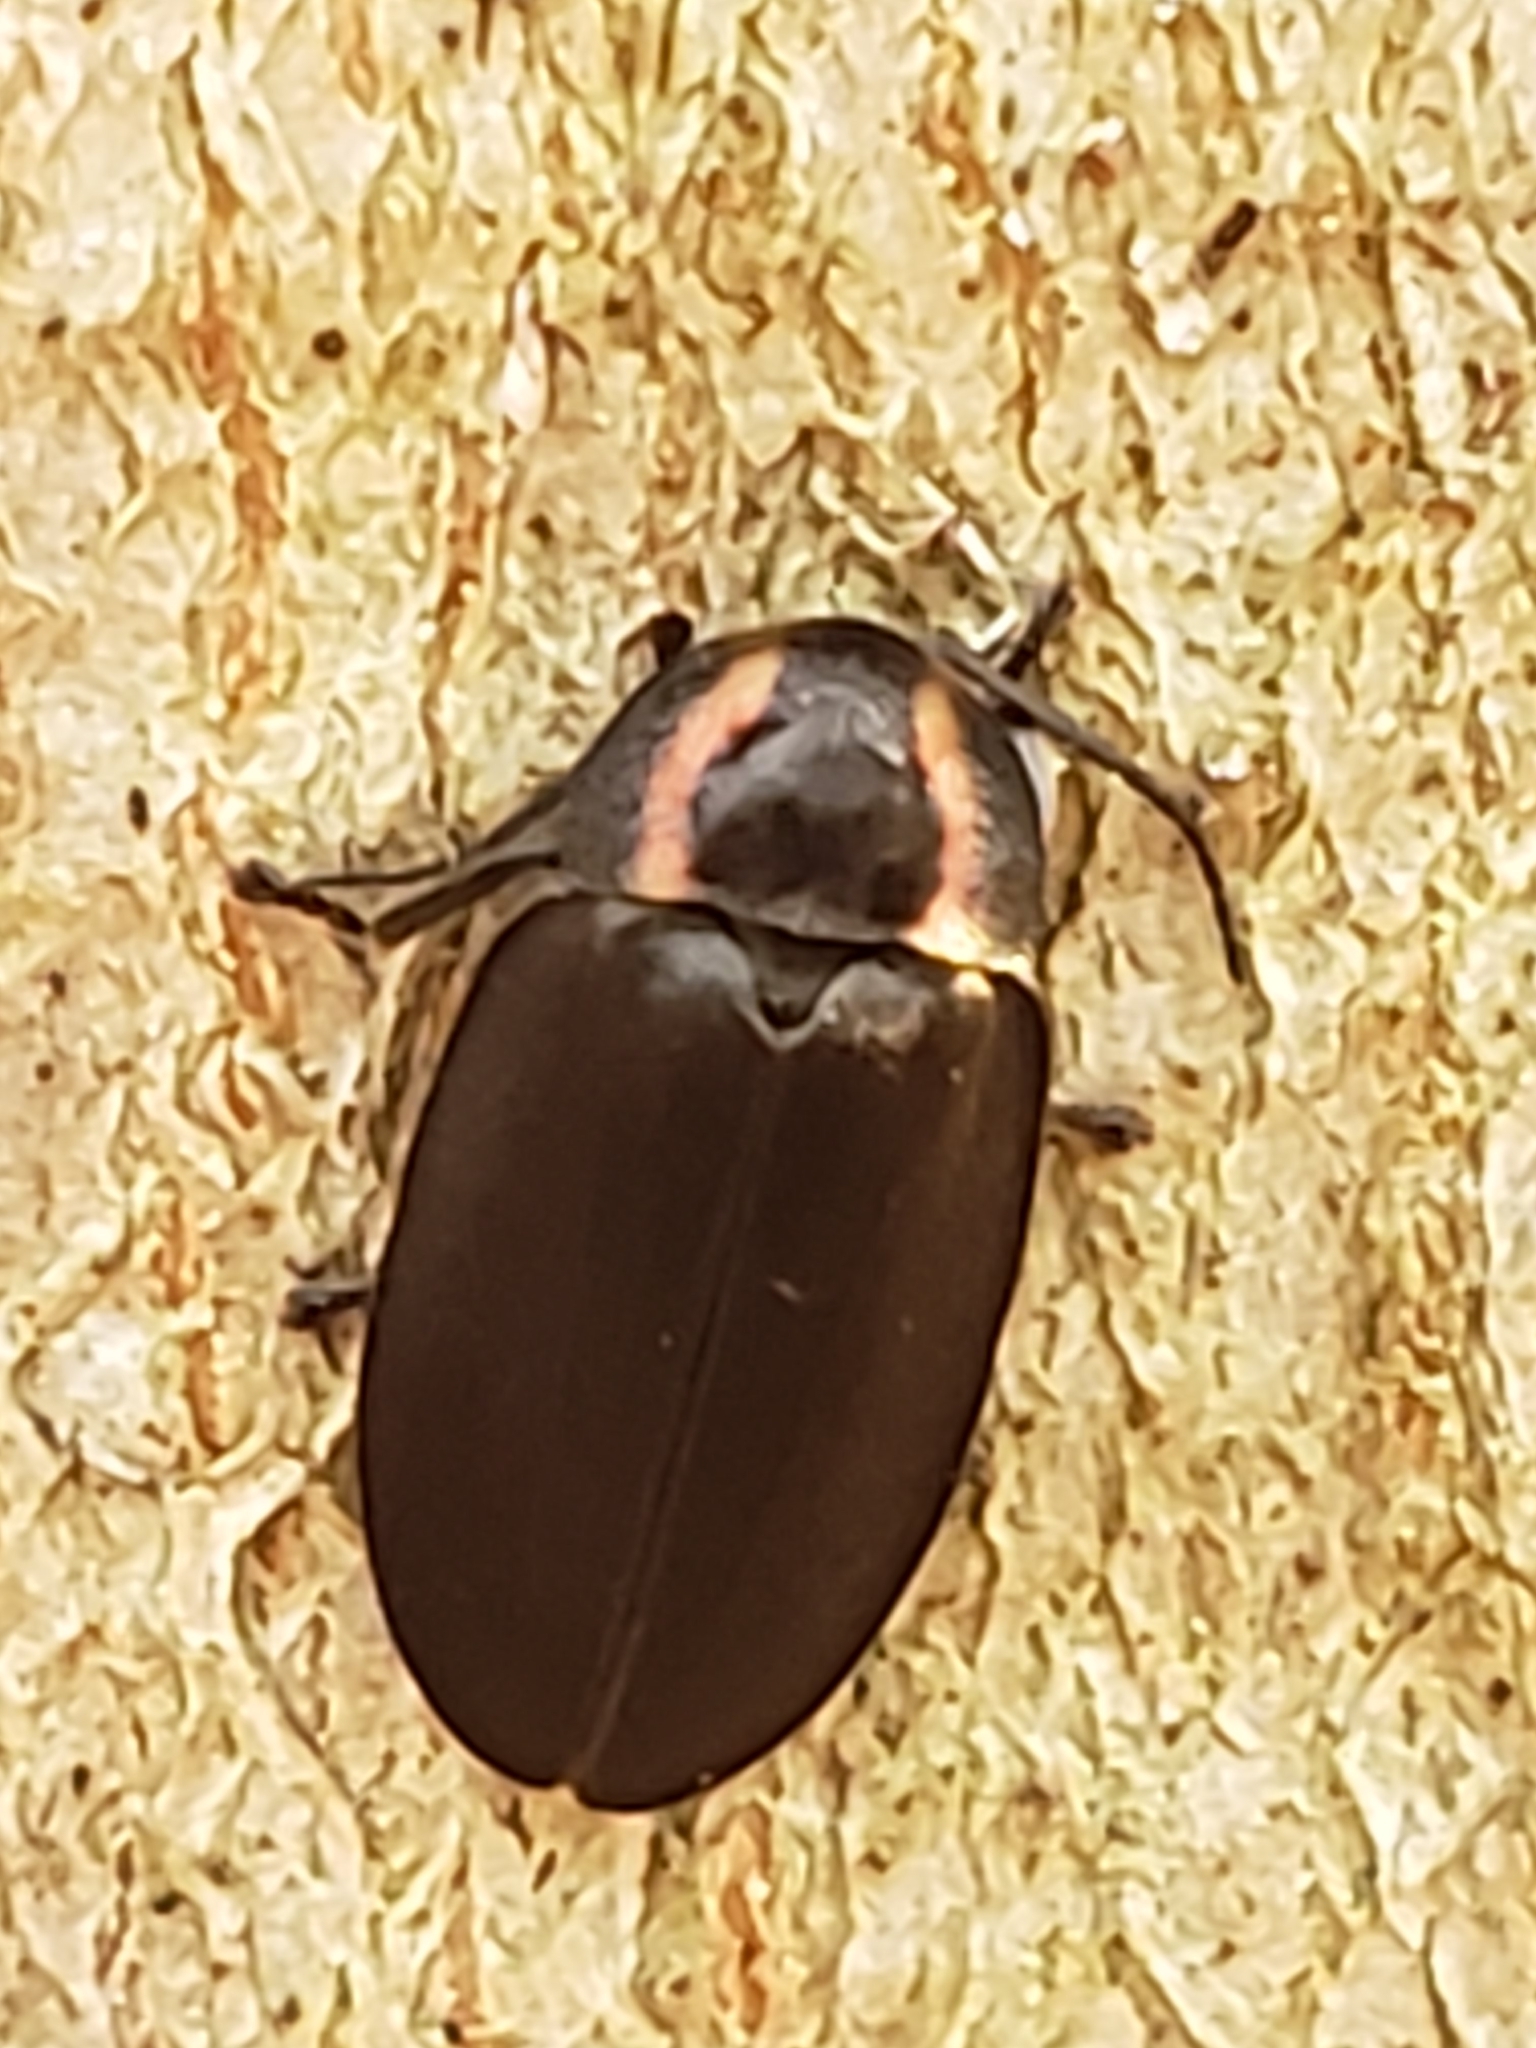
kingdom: Animalia
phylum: Arthropoda
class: Insecta
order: Coleoptera
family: Lampyridae
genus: Photinus
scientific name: Photinus corrusca
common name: Winter firefly
